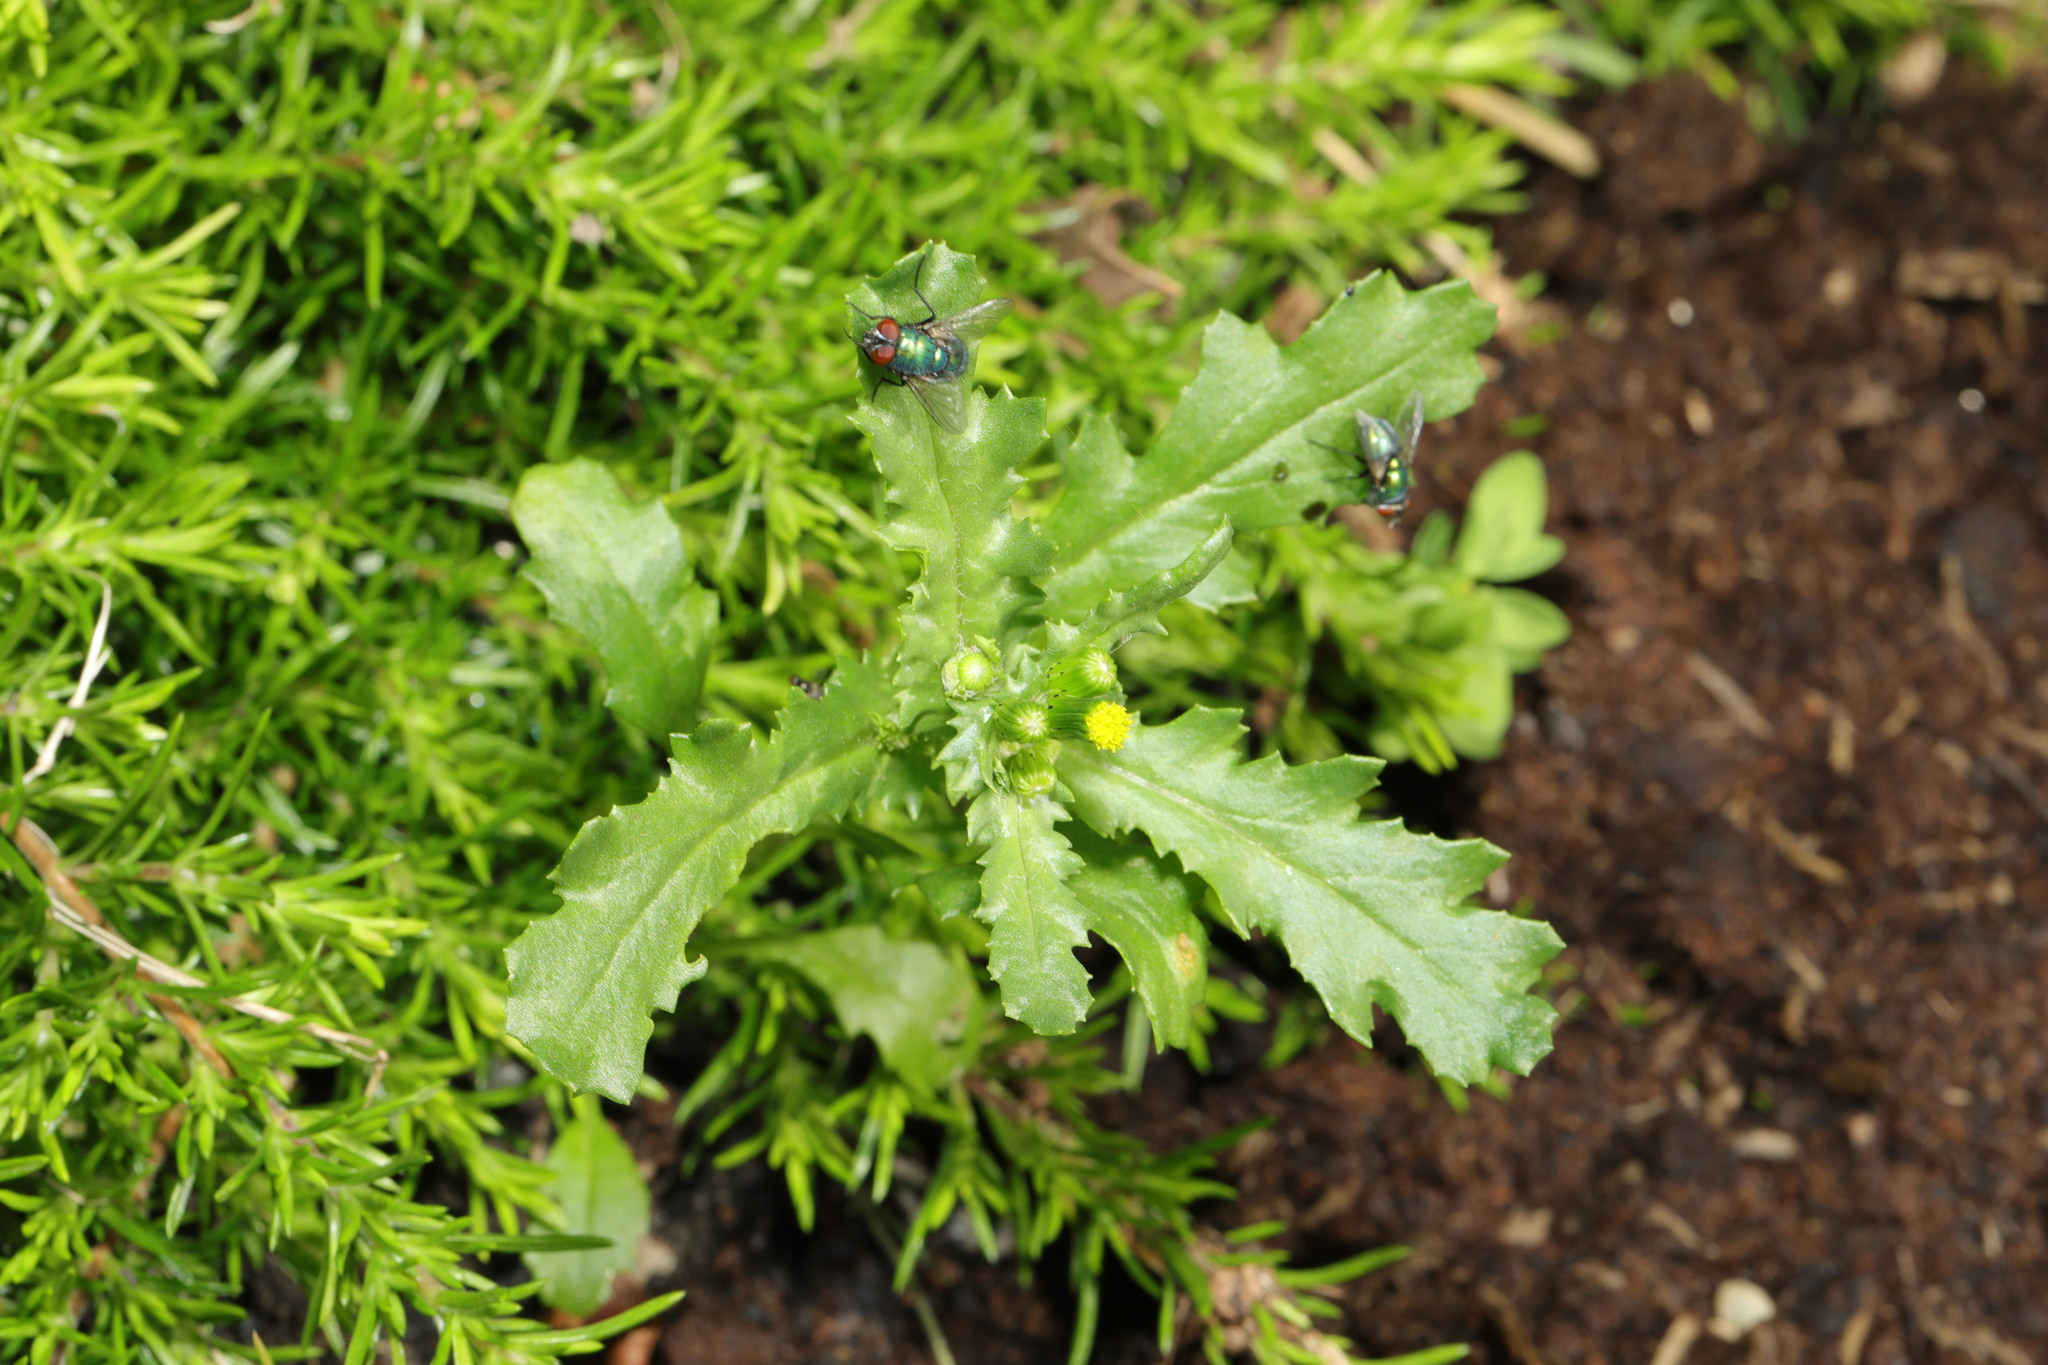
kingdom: Plantae
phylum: Tracheophyta
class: Magnoliopsida
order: Asterales
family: Asteraceae
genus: Senecio
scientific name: Senecio vulgaris
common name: Old-man-in-the-spring
